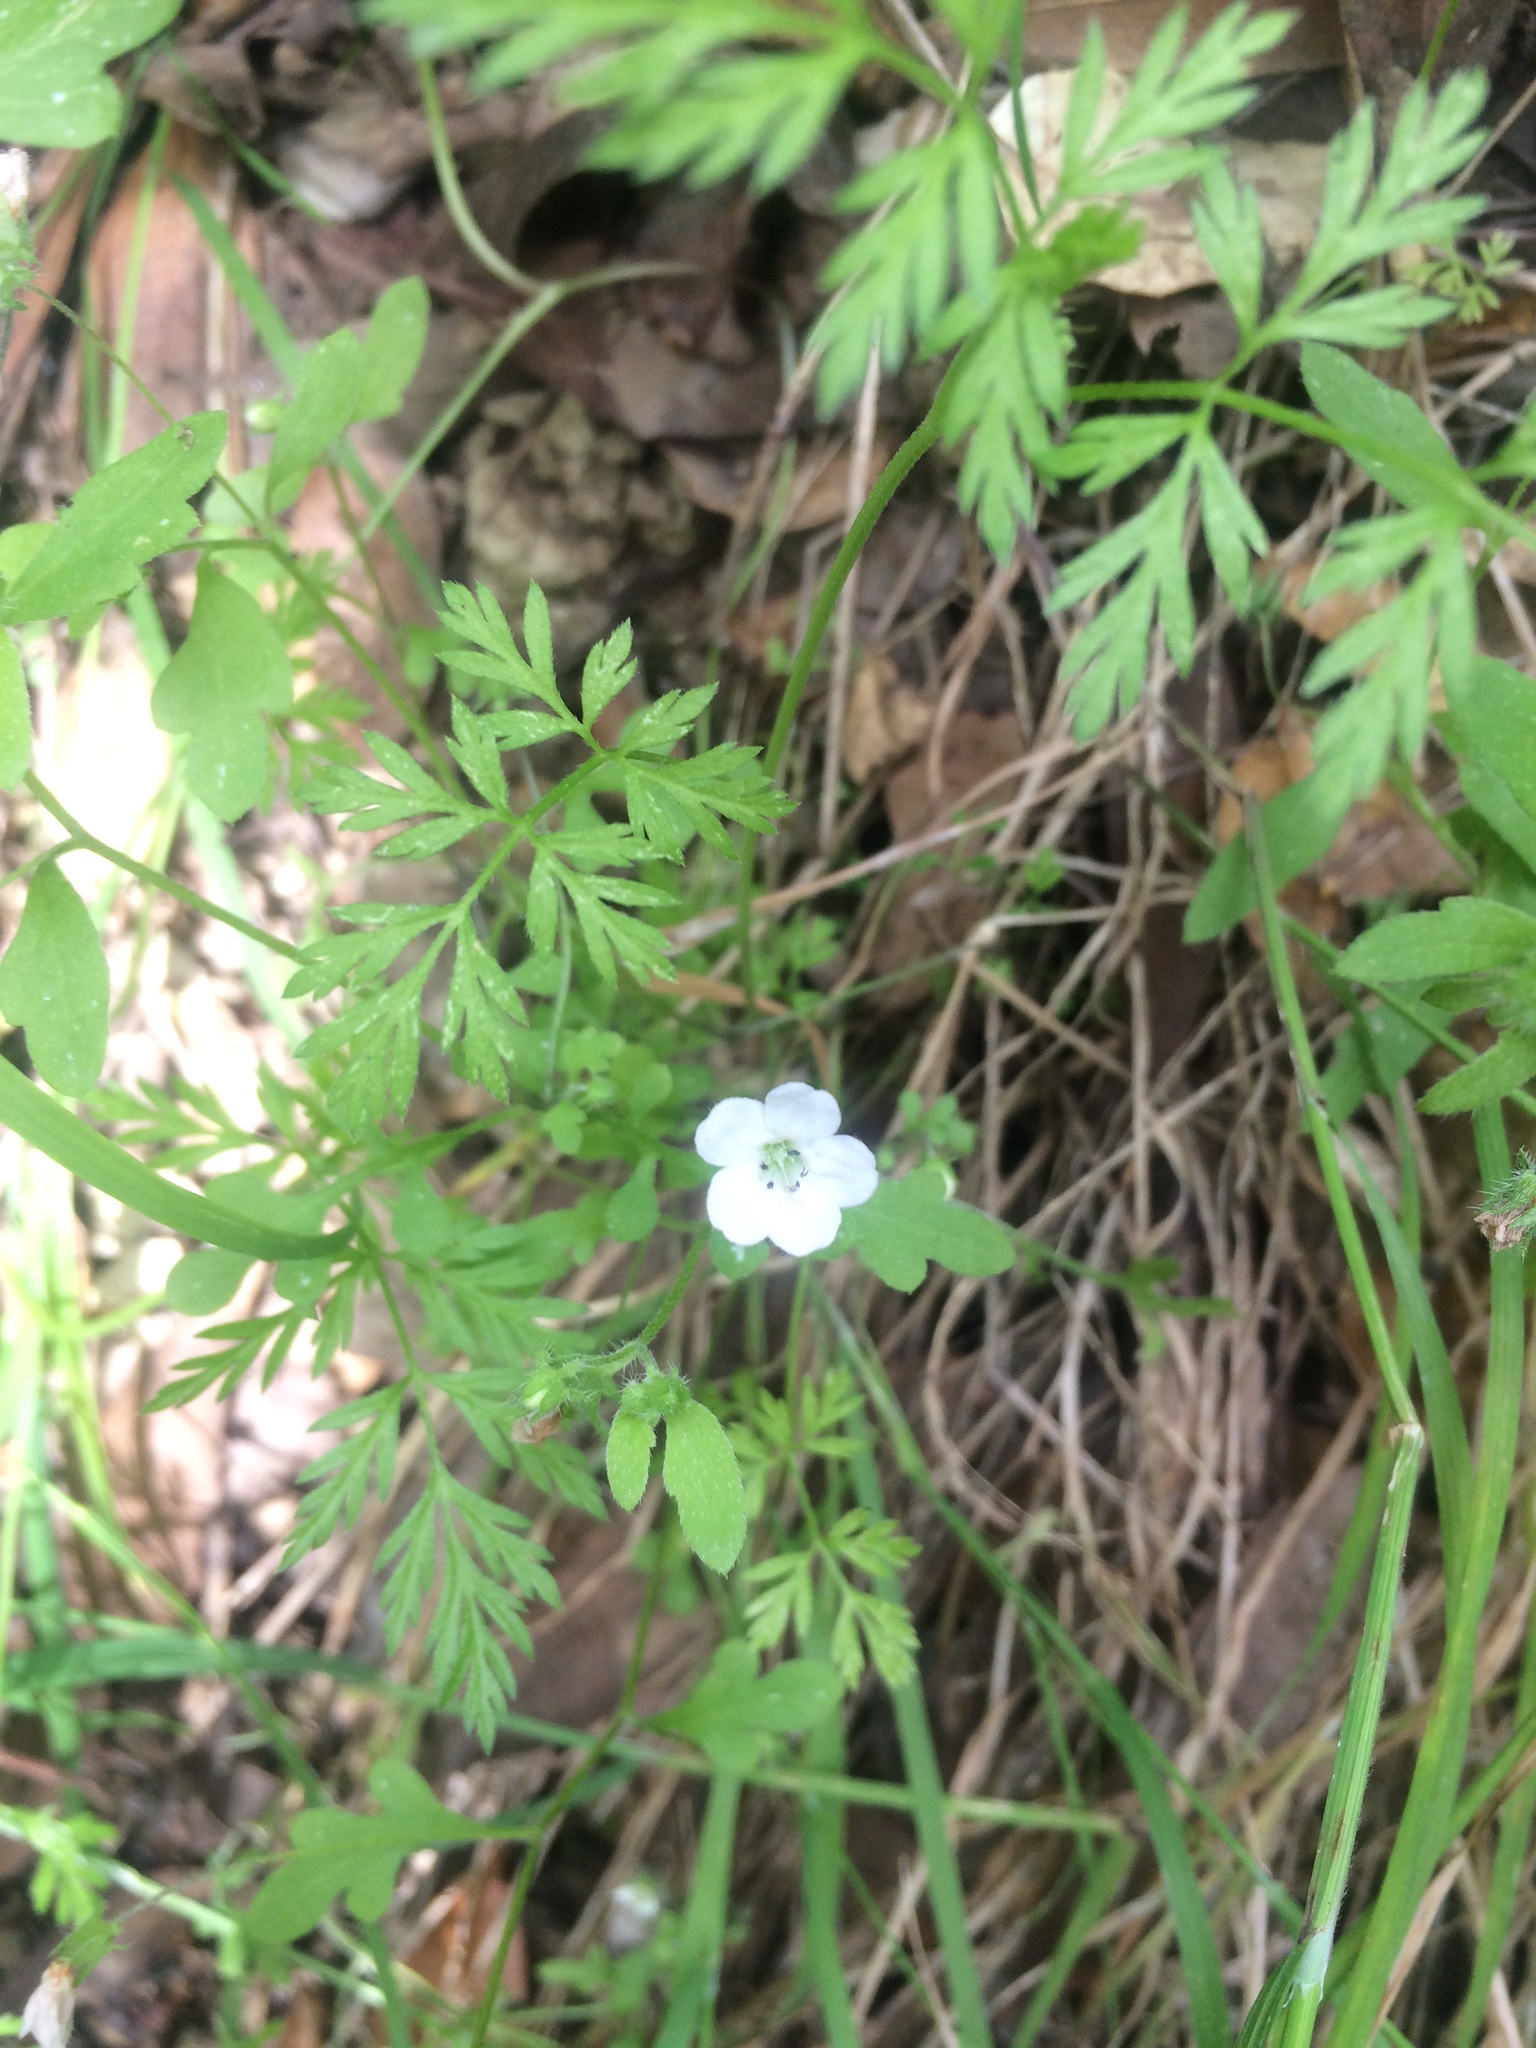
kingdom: Plantae
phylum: Tracheophyta
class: Magnoliopsida
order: Boraginales
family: Hydrophyllaceae
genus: Nemophila
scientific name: Nemophila heterophylla
